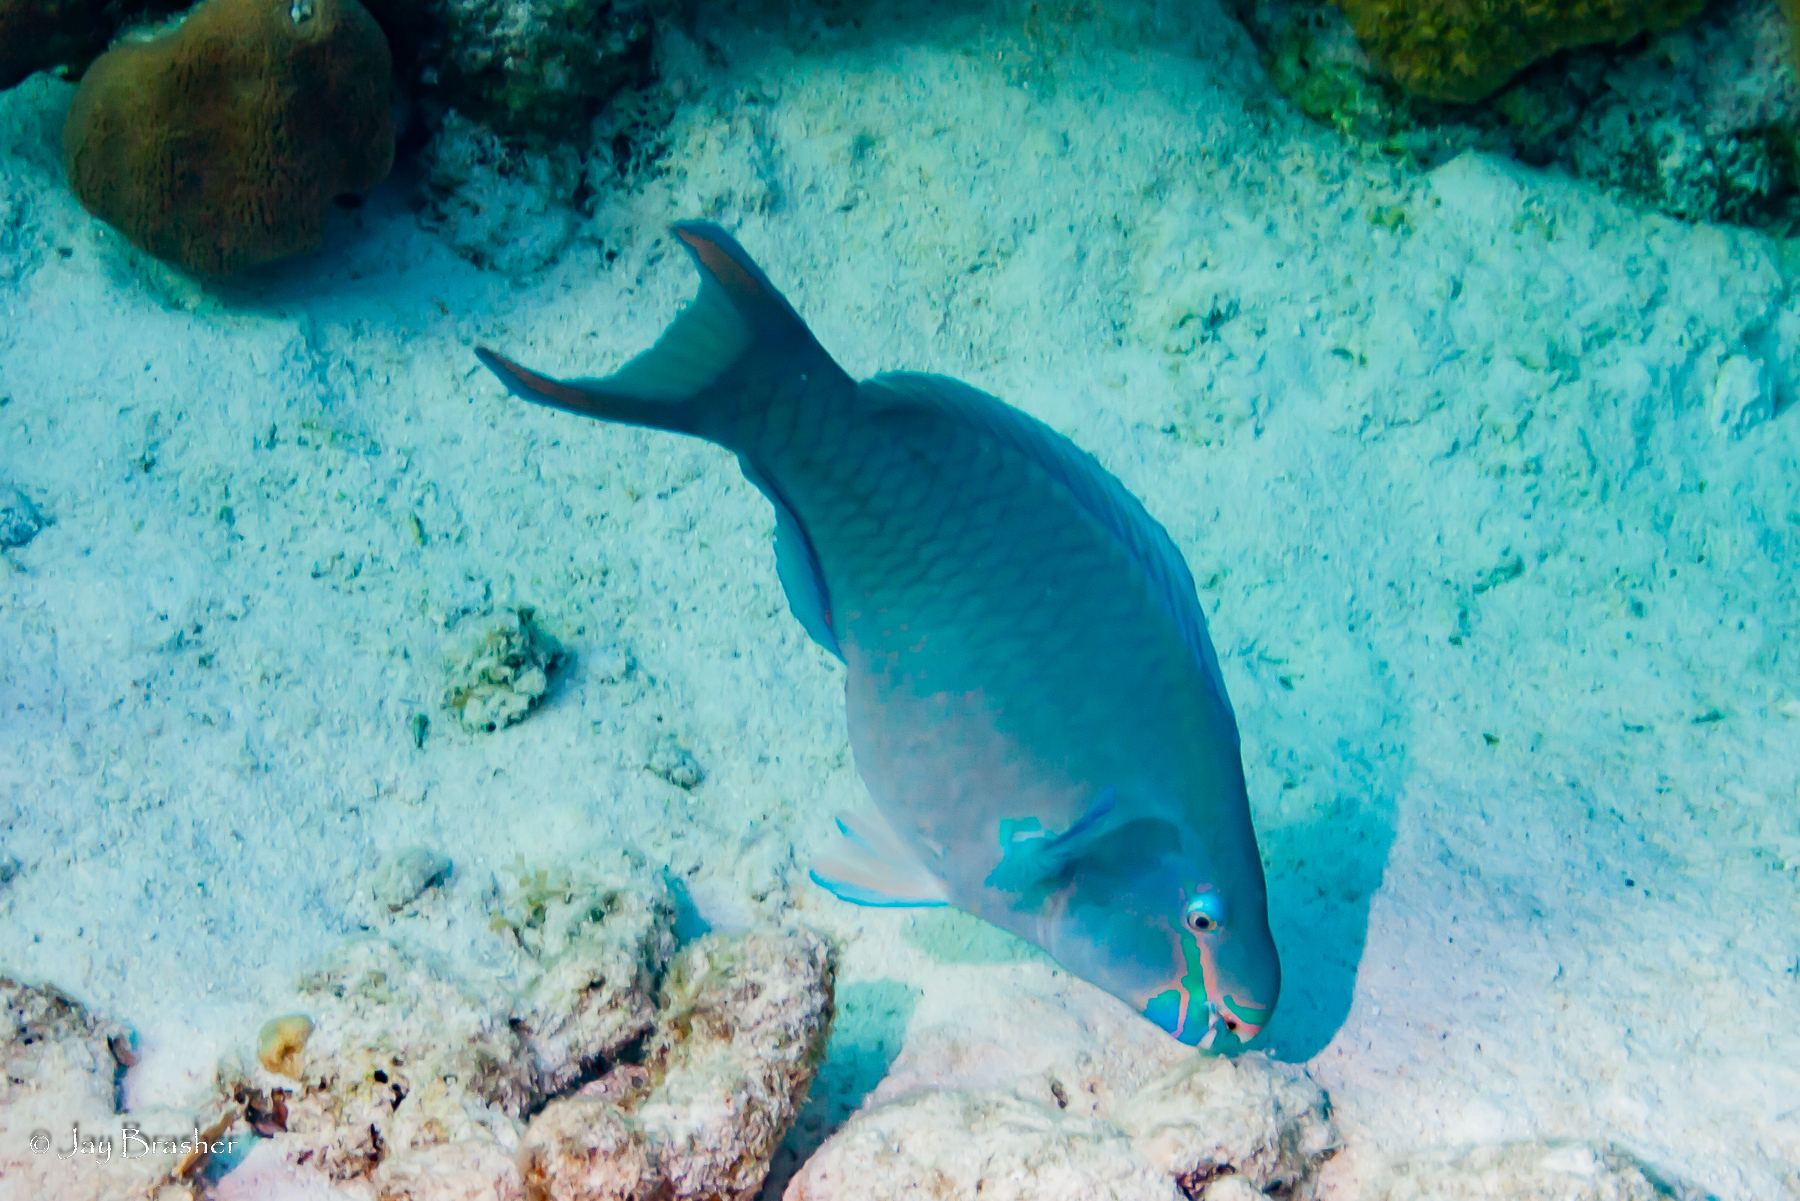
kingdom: Animalia
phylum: Chordata
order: Perciformes
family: Scaridae
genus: Scarus
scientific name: Scarus vetula
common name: Queen parrotfish
